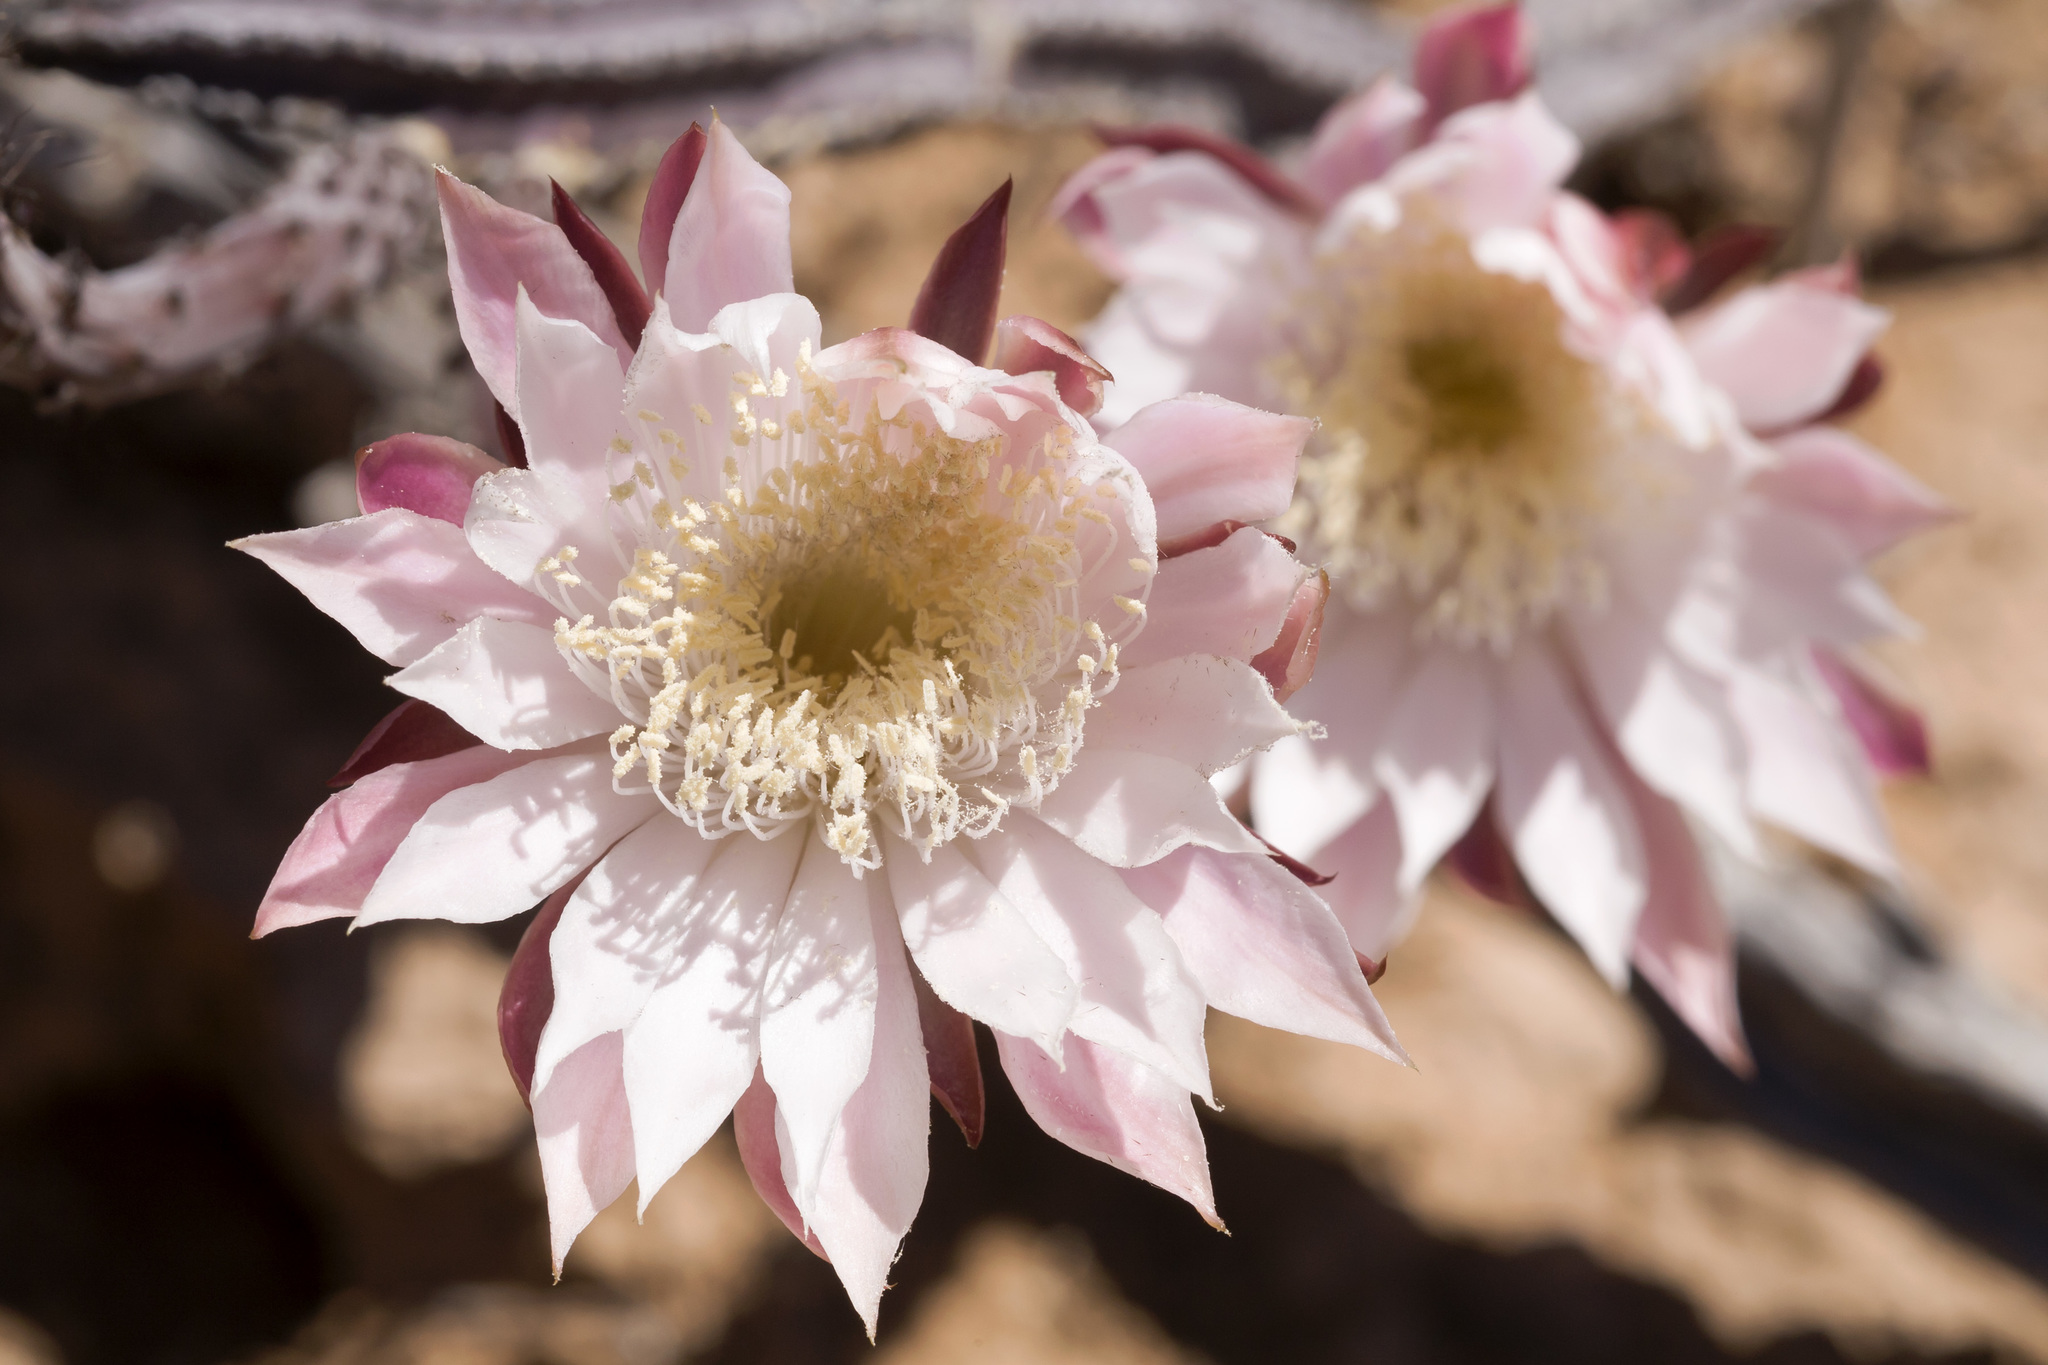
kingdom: Plantae
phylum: Tracheophyta
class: Magnoliopsida
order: Caryophyllales
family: Cactaceae
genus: Peniocereus
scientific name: Peniocereus greggii
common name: Desert night-blooming cereus
